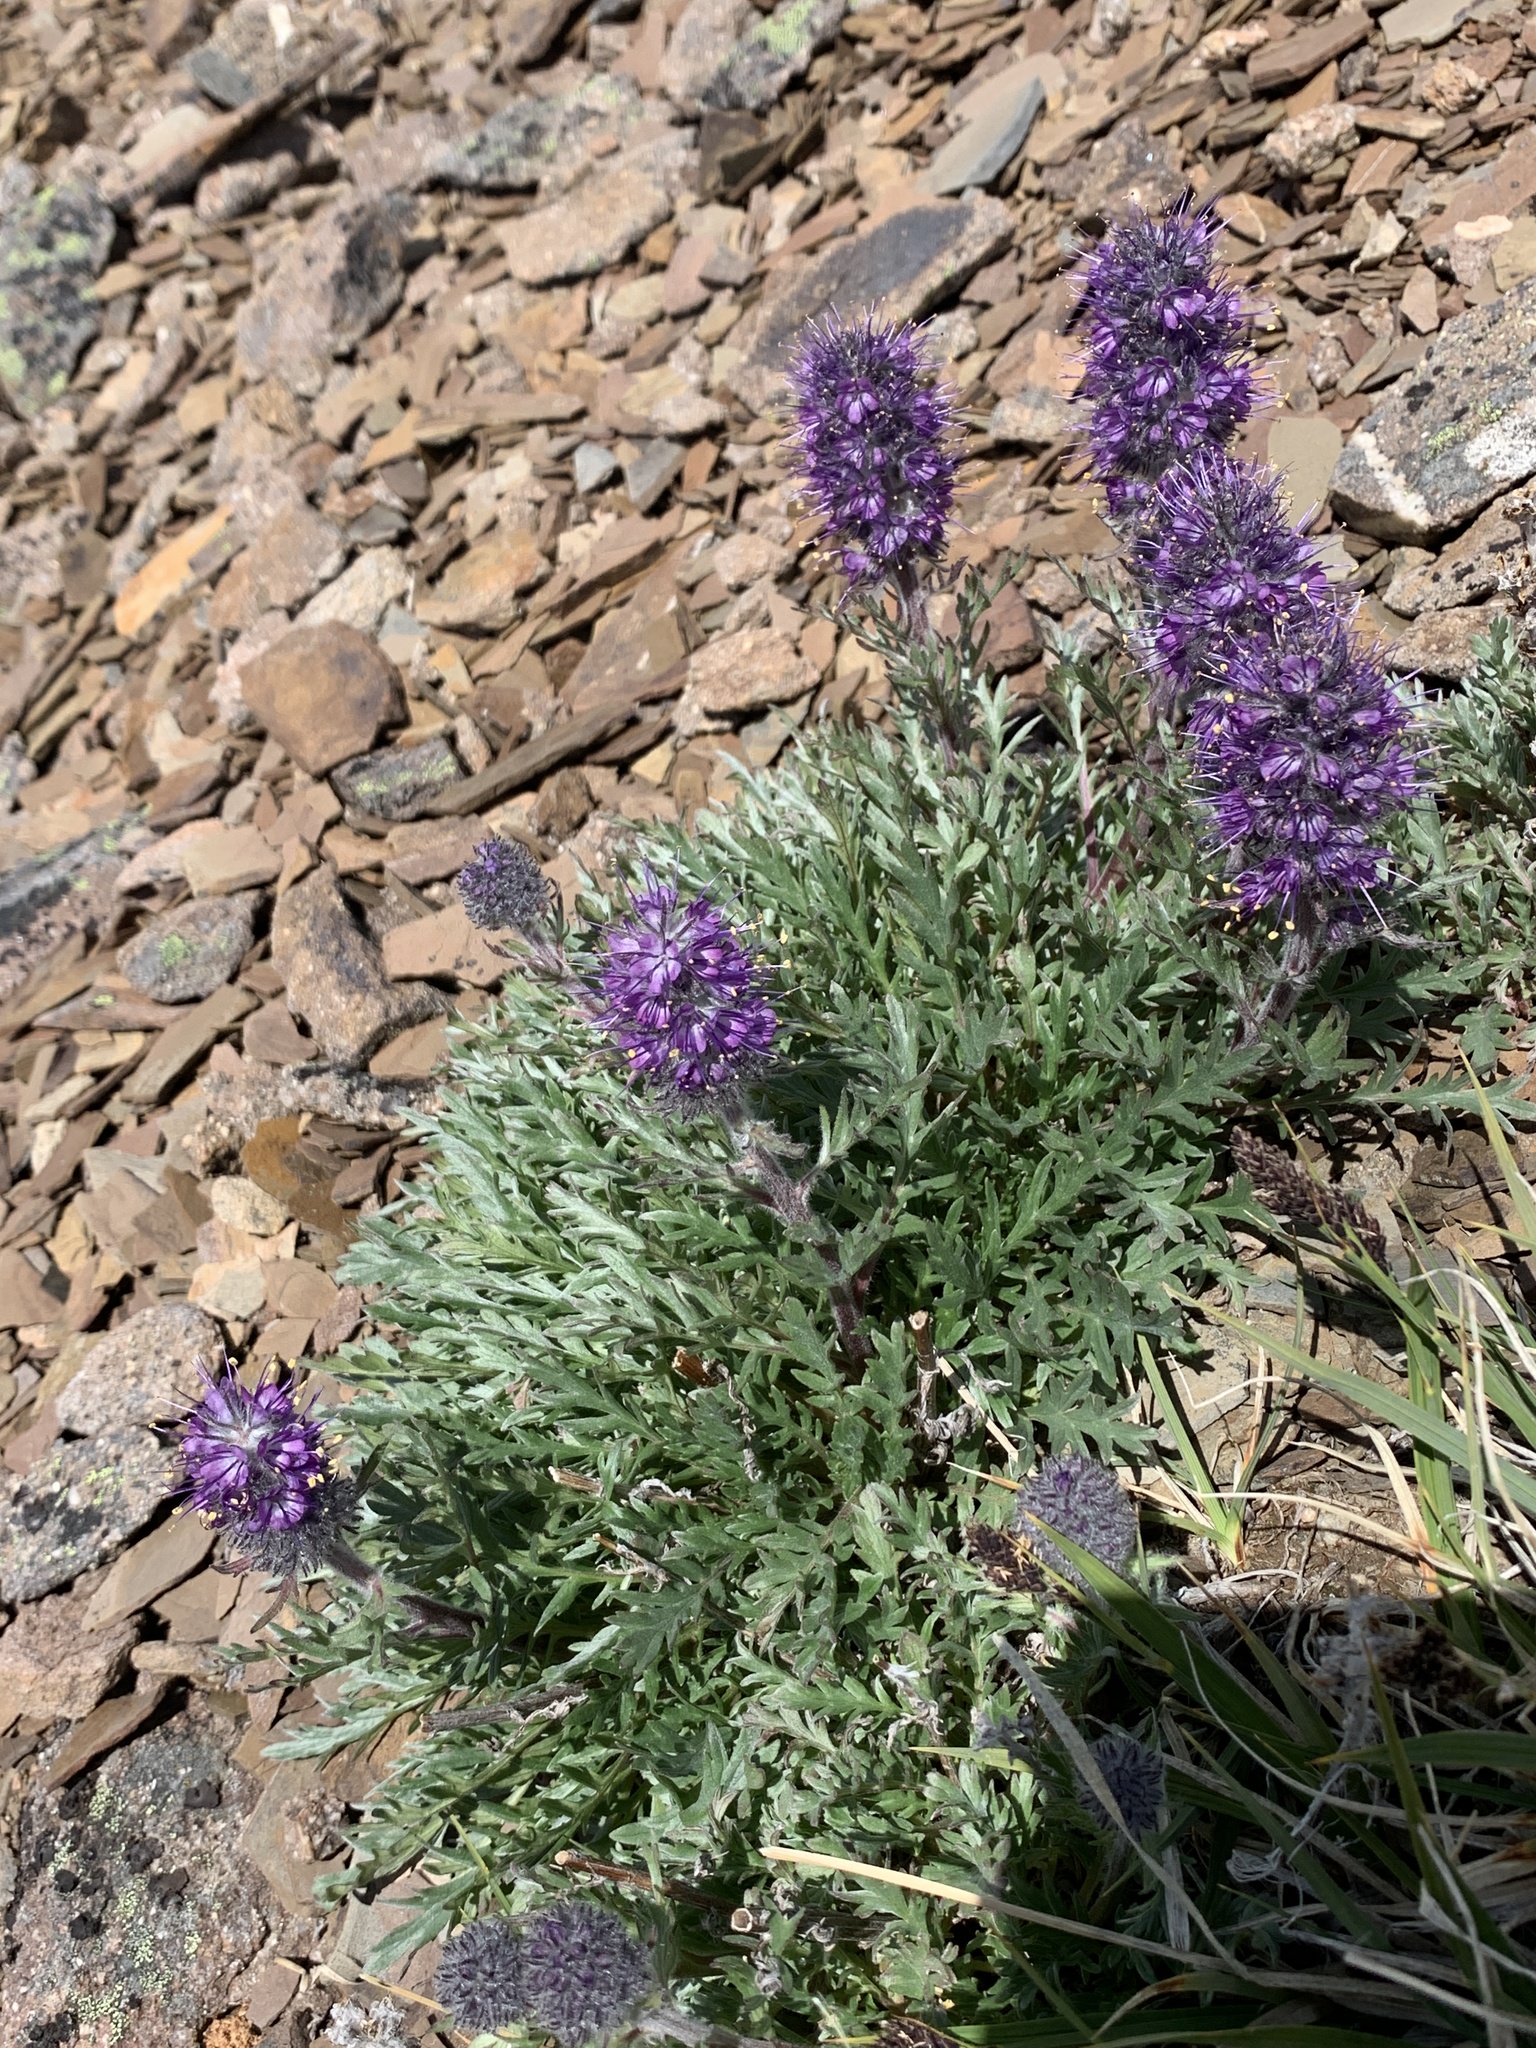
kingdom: Plantae
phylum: Tracheophyta
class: Magnoliopsida
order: Boraginales
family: Hydrophyllaceae
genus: Phacelia
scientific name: Phacelia sericea
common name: Silky phacelia
